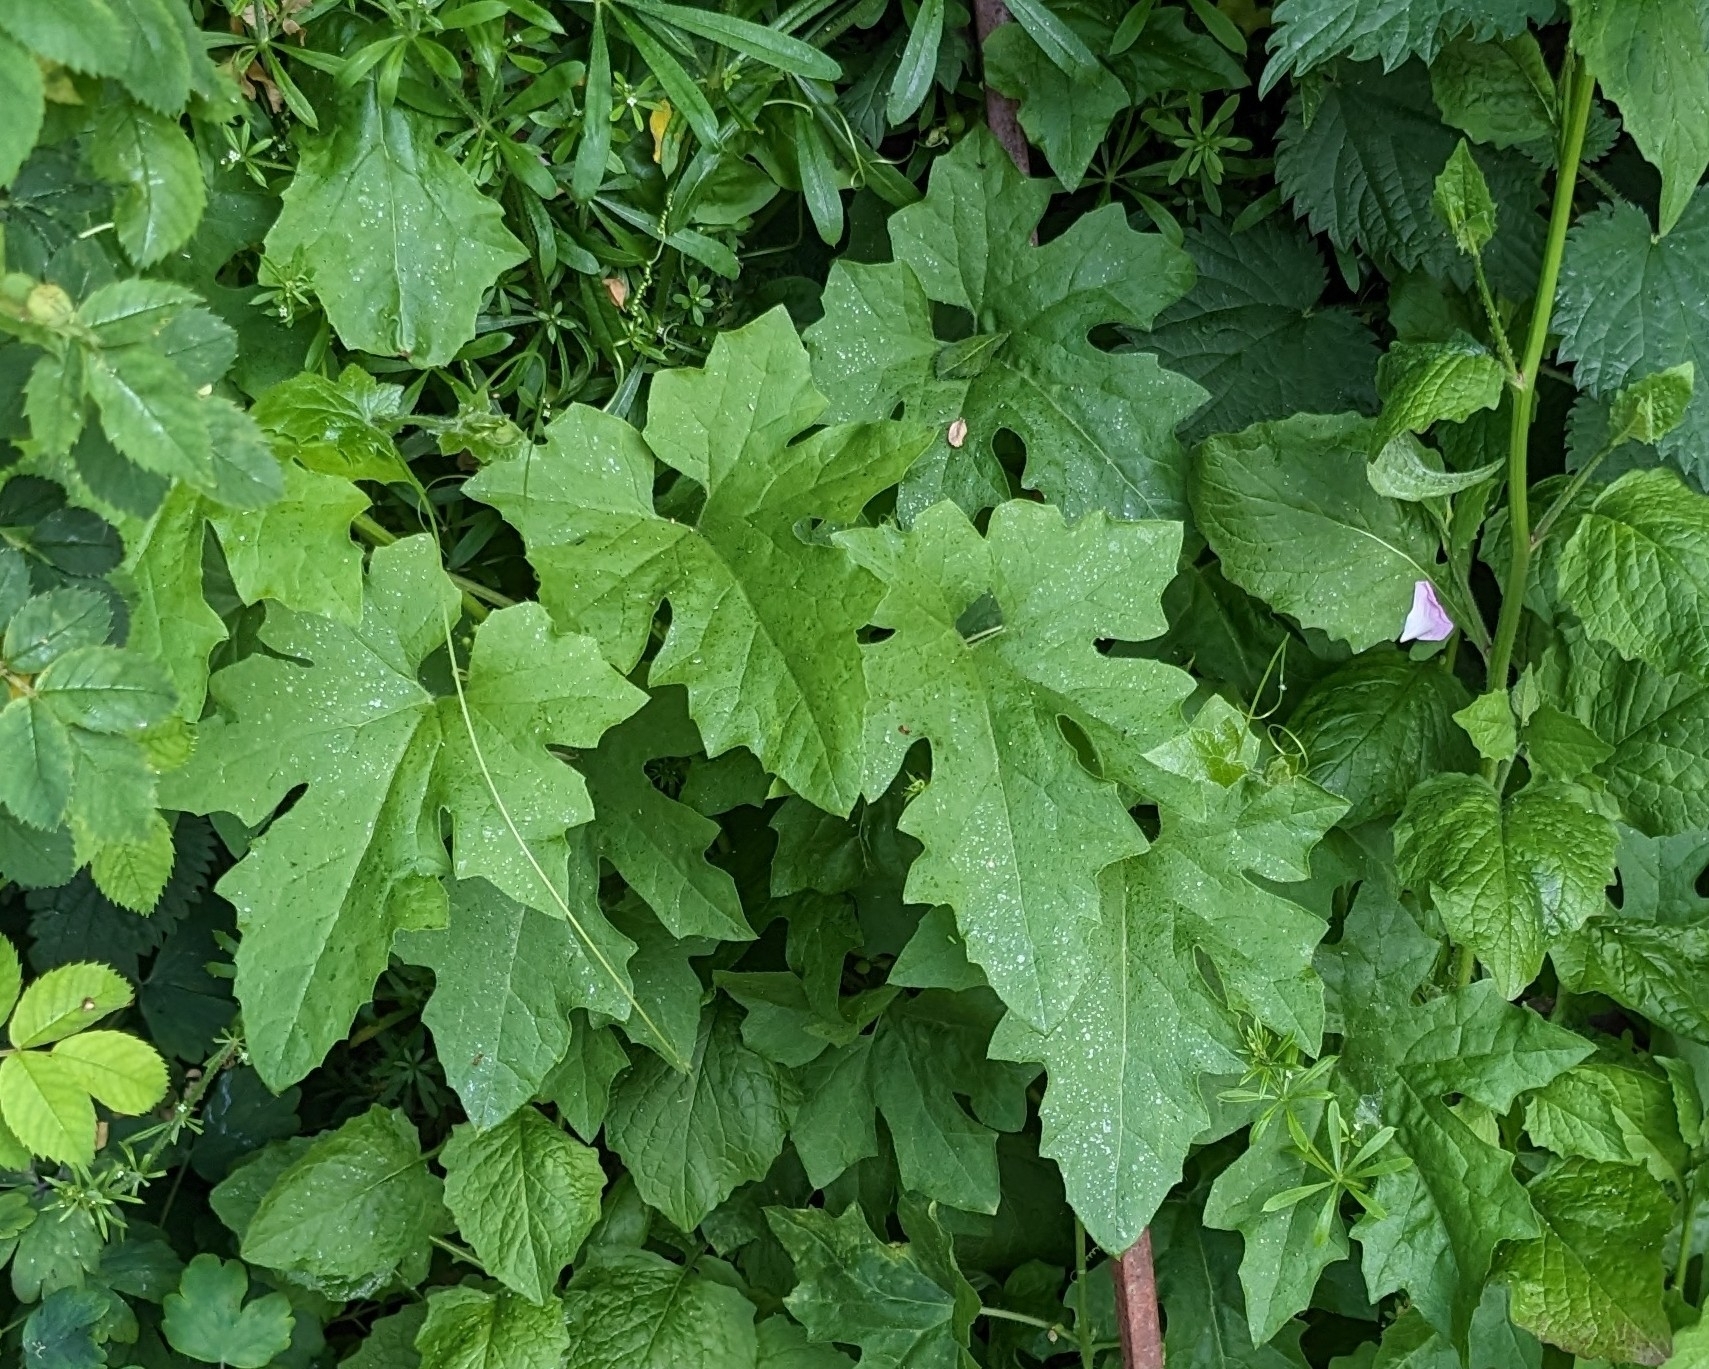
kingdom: Plantae
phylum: Tracheophyta
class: Magnoliopsida
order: Cucurbitales
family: Cucurbitaceae
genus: Bryonia
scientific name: Bryonia cretica
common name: Cretan bryony
